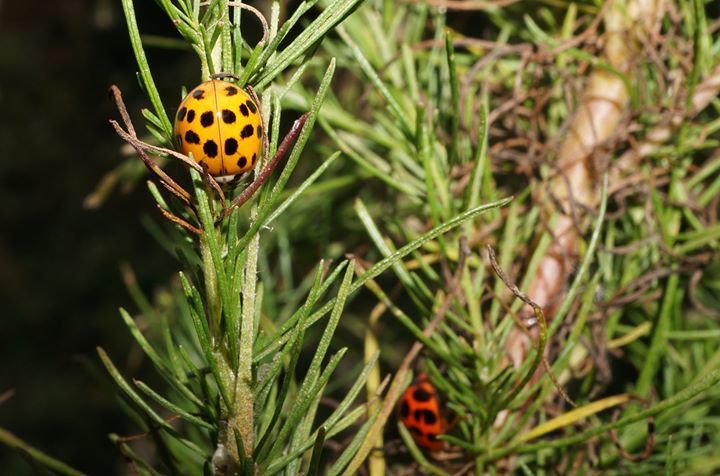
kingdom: Animalia
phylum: Arthropoda
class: Insecta
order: Coleoptera
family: Coccinellidae
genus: Harmonia
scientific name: Harmonia axyridis
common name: Harlequin ladybird
